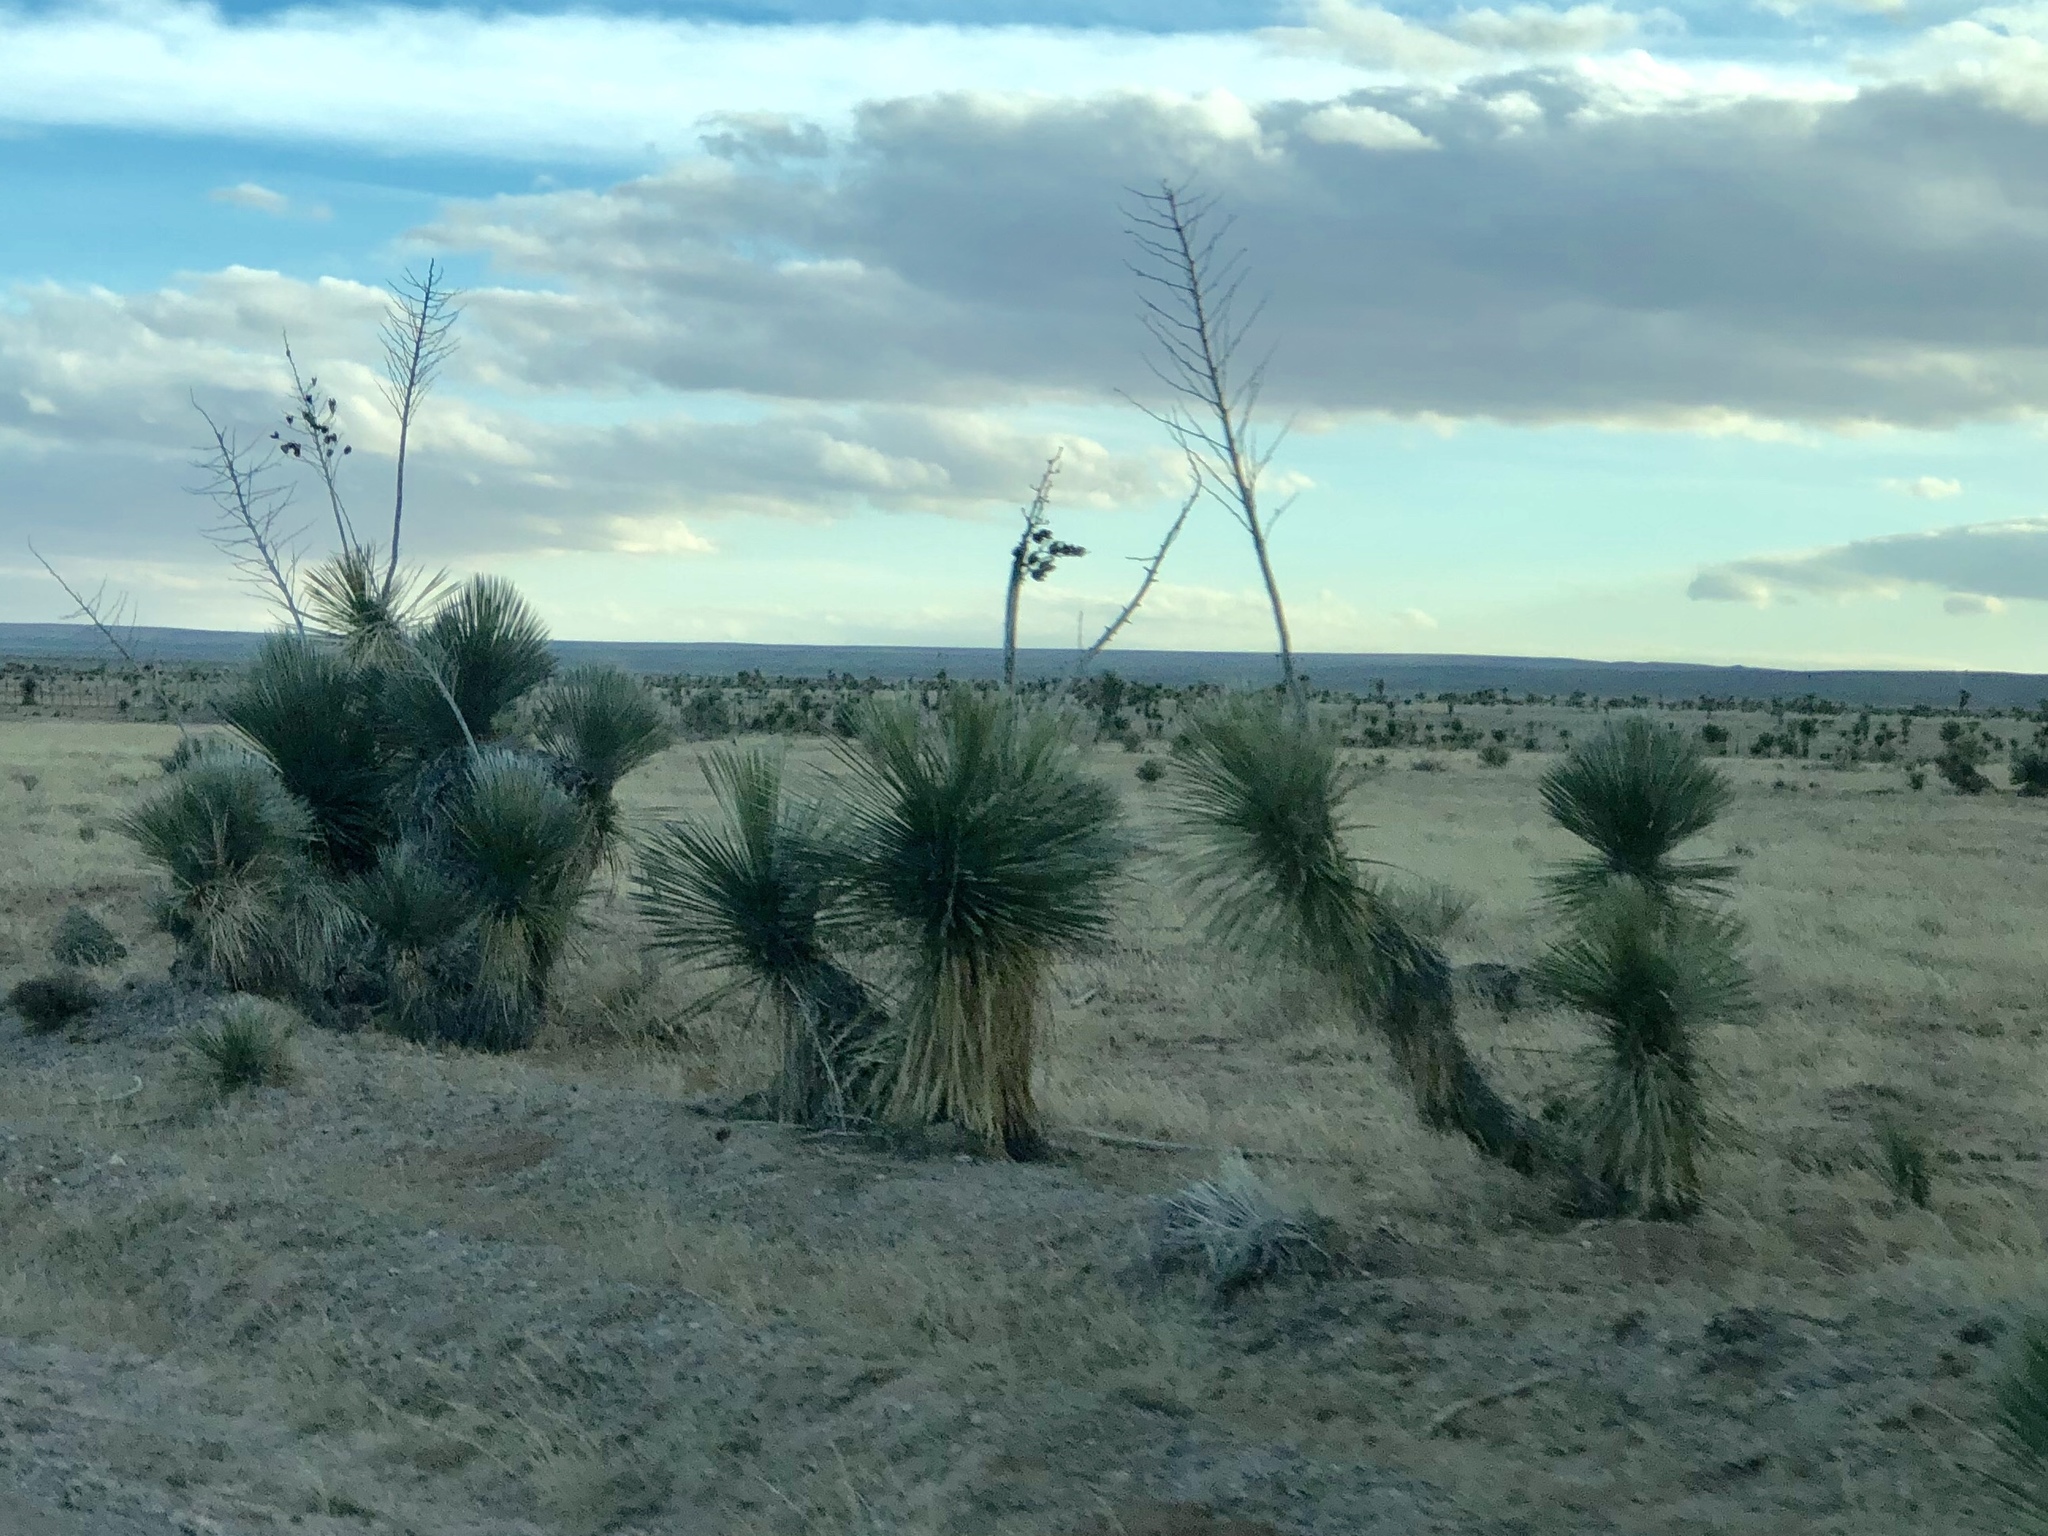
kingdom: Plantae
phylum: Tracheophyta
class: Liliopsida
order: Asparagales
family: Asparagaceae
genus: Yucca
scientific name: Yucca elata
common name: Palmella
